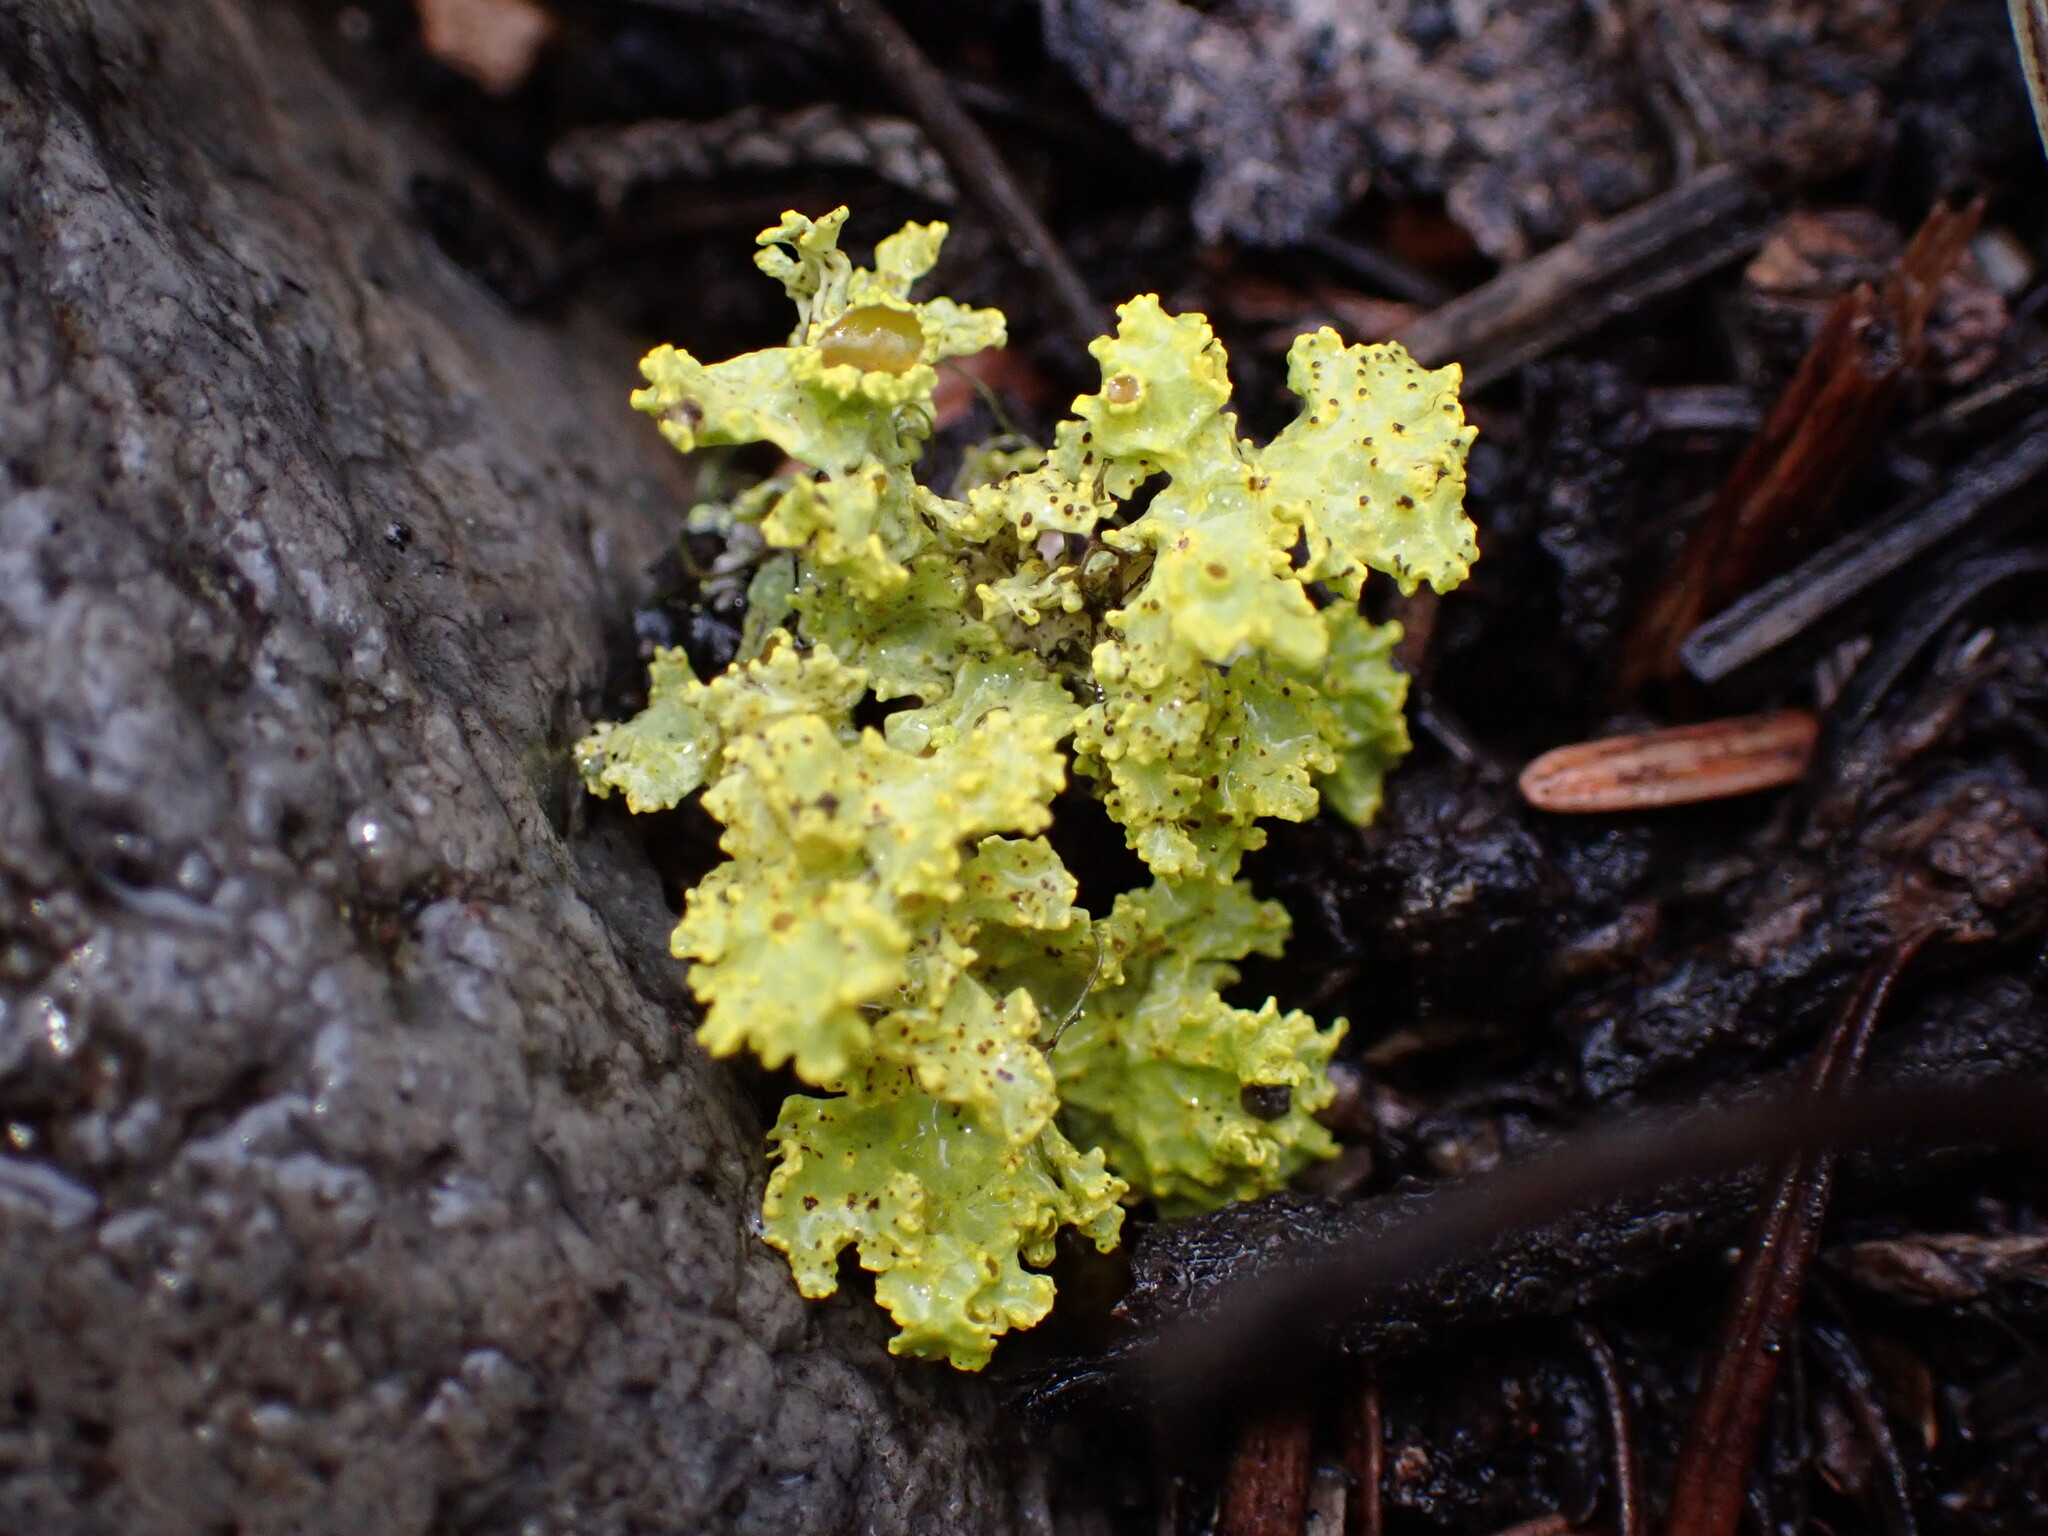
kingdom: Fungi
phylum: Ascomycota
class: Lecanoromycetes
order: Lecanorales
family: Parmeliaceae
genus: Vulpicida
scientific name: Vulpicida canadensis
